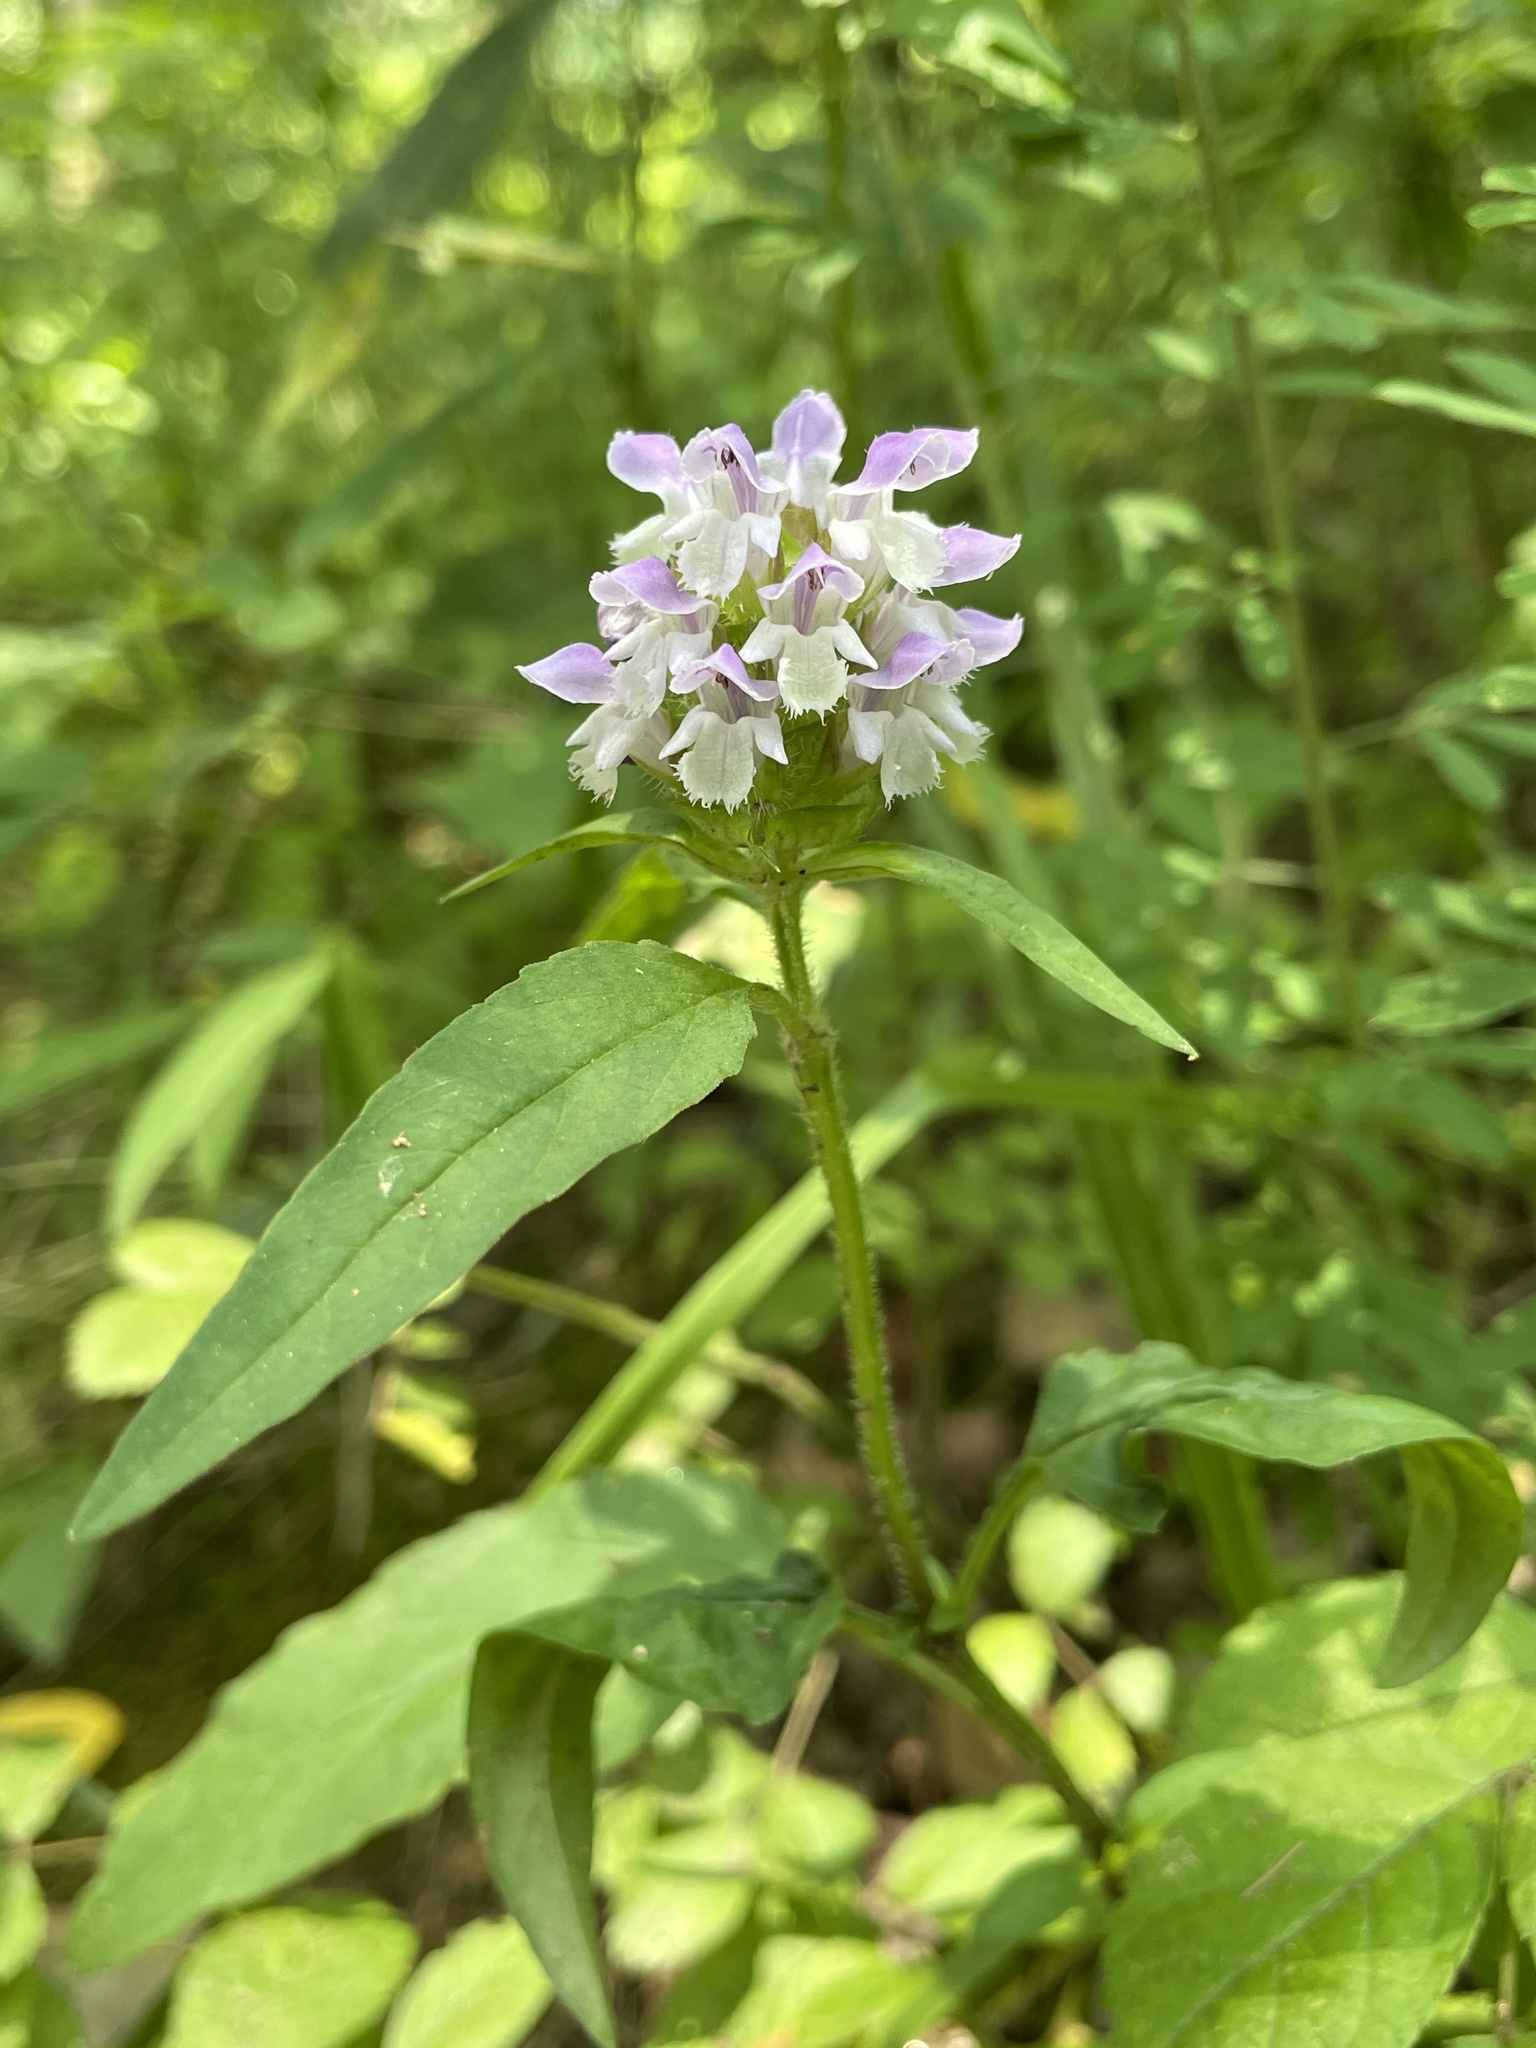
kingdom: Plantae
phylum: Tracheophyta
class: Magnoliopsida
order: Lamiales
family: Lamiaceae
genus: Prunella
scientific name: Prunella vulgaris
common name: Heal-all
